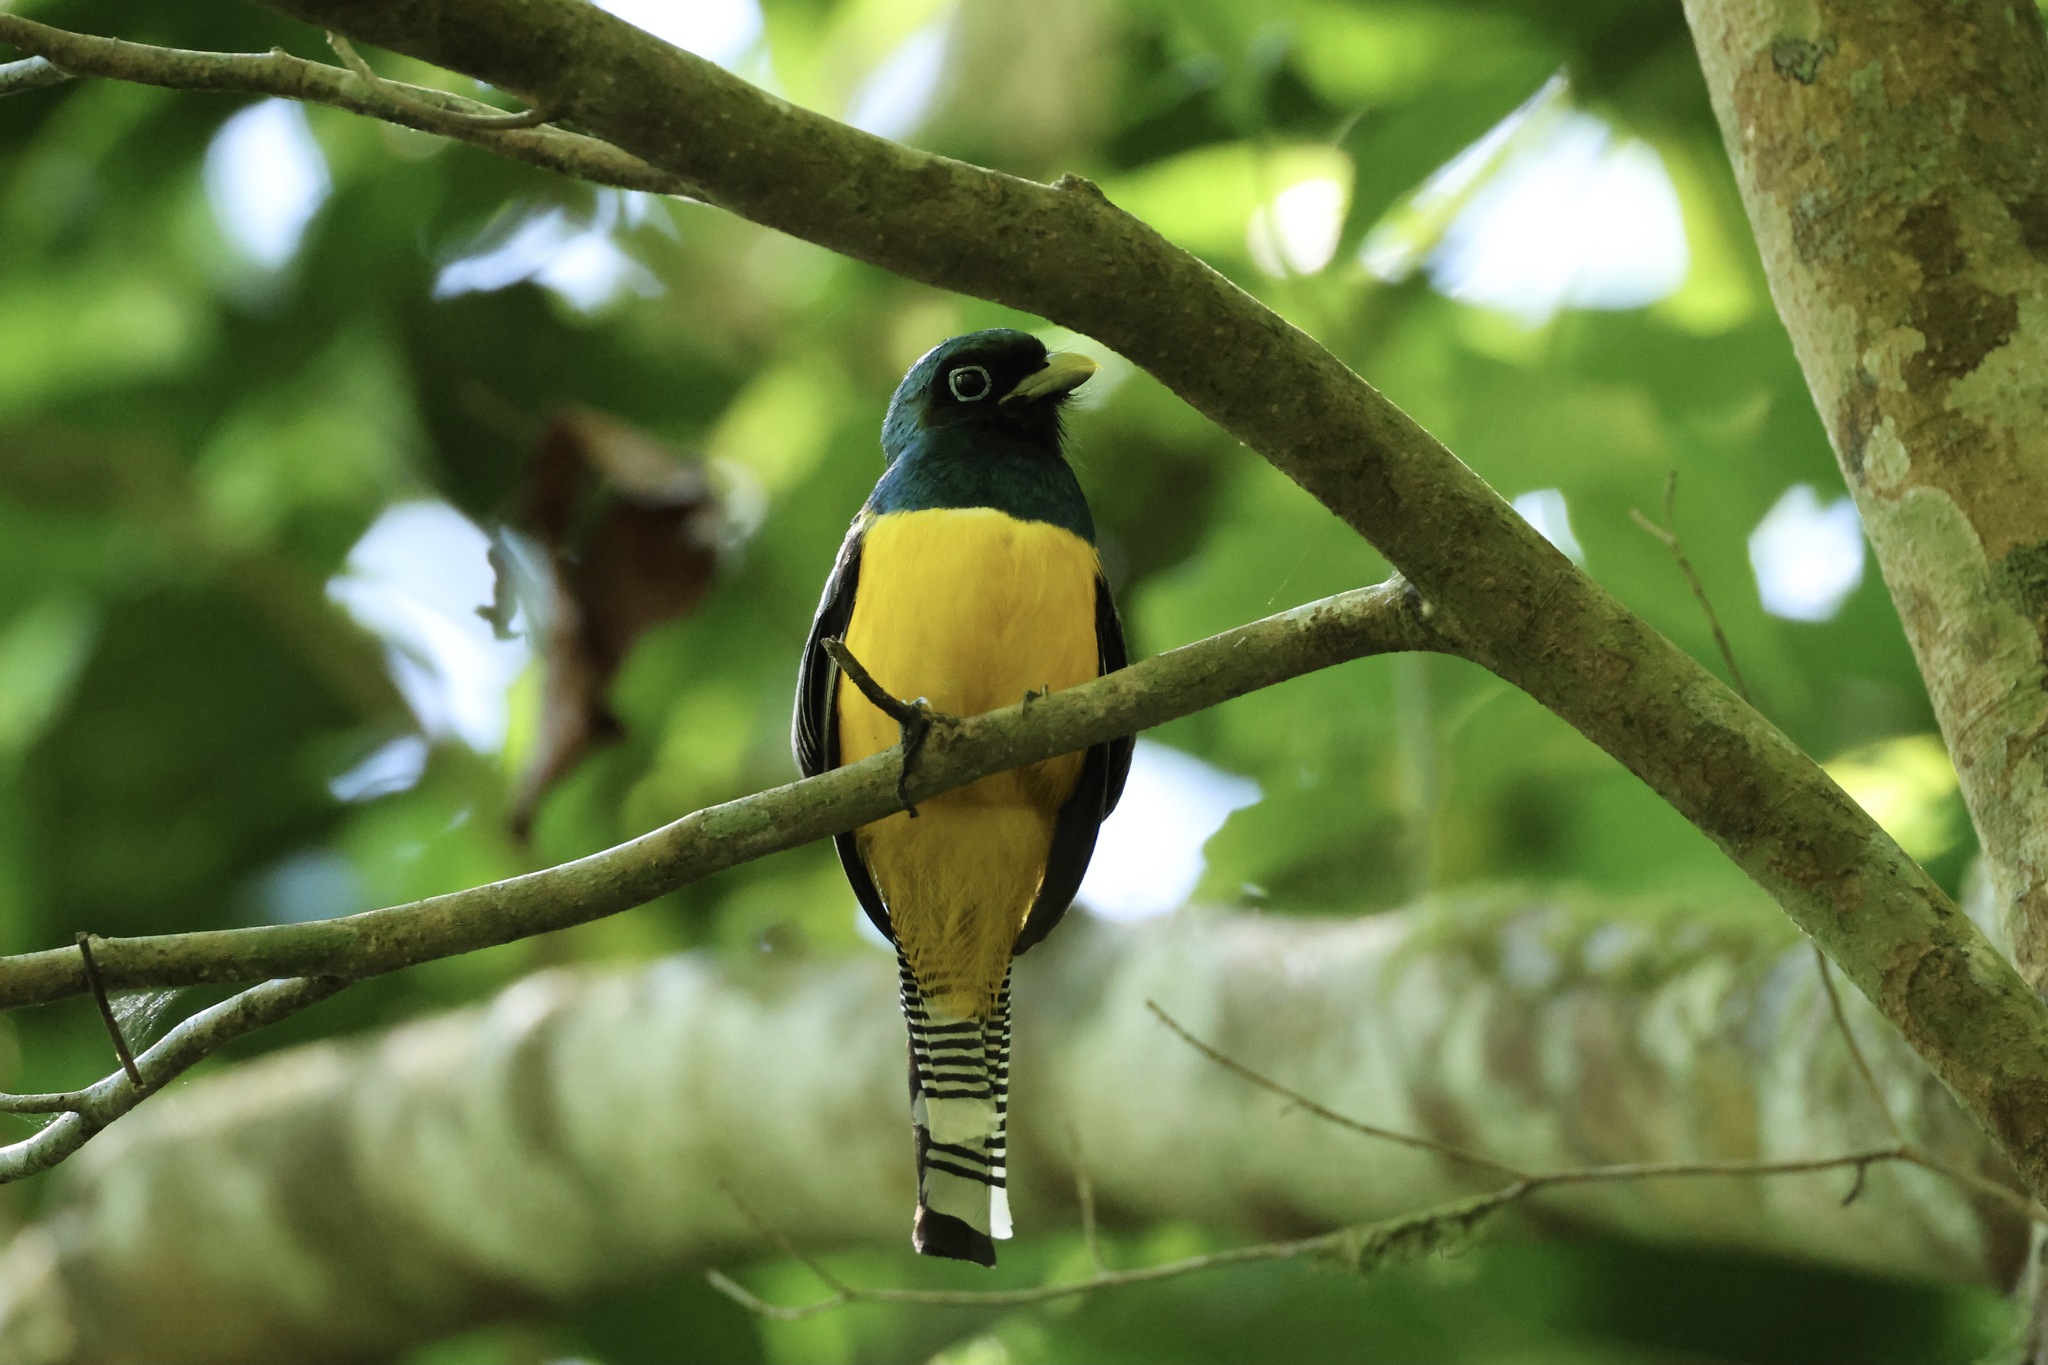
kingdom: Animalia
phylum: Chordata
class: Aves
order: Trogoniformes
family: Trogonidae
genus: Trogon
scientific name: Trogon rufus
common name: Black-throated trogon
